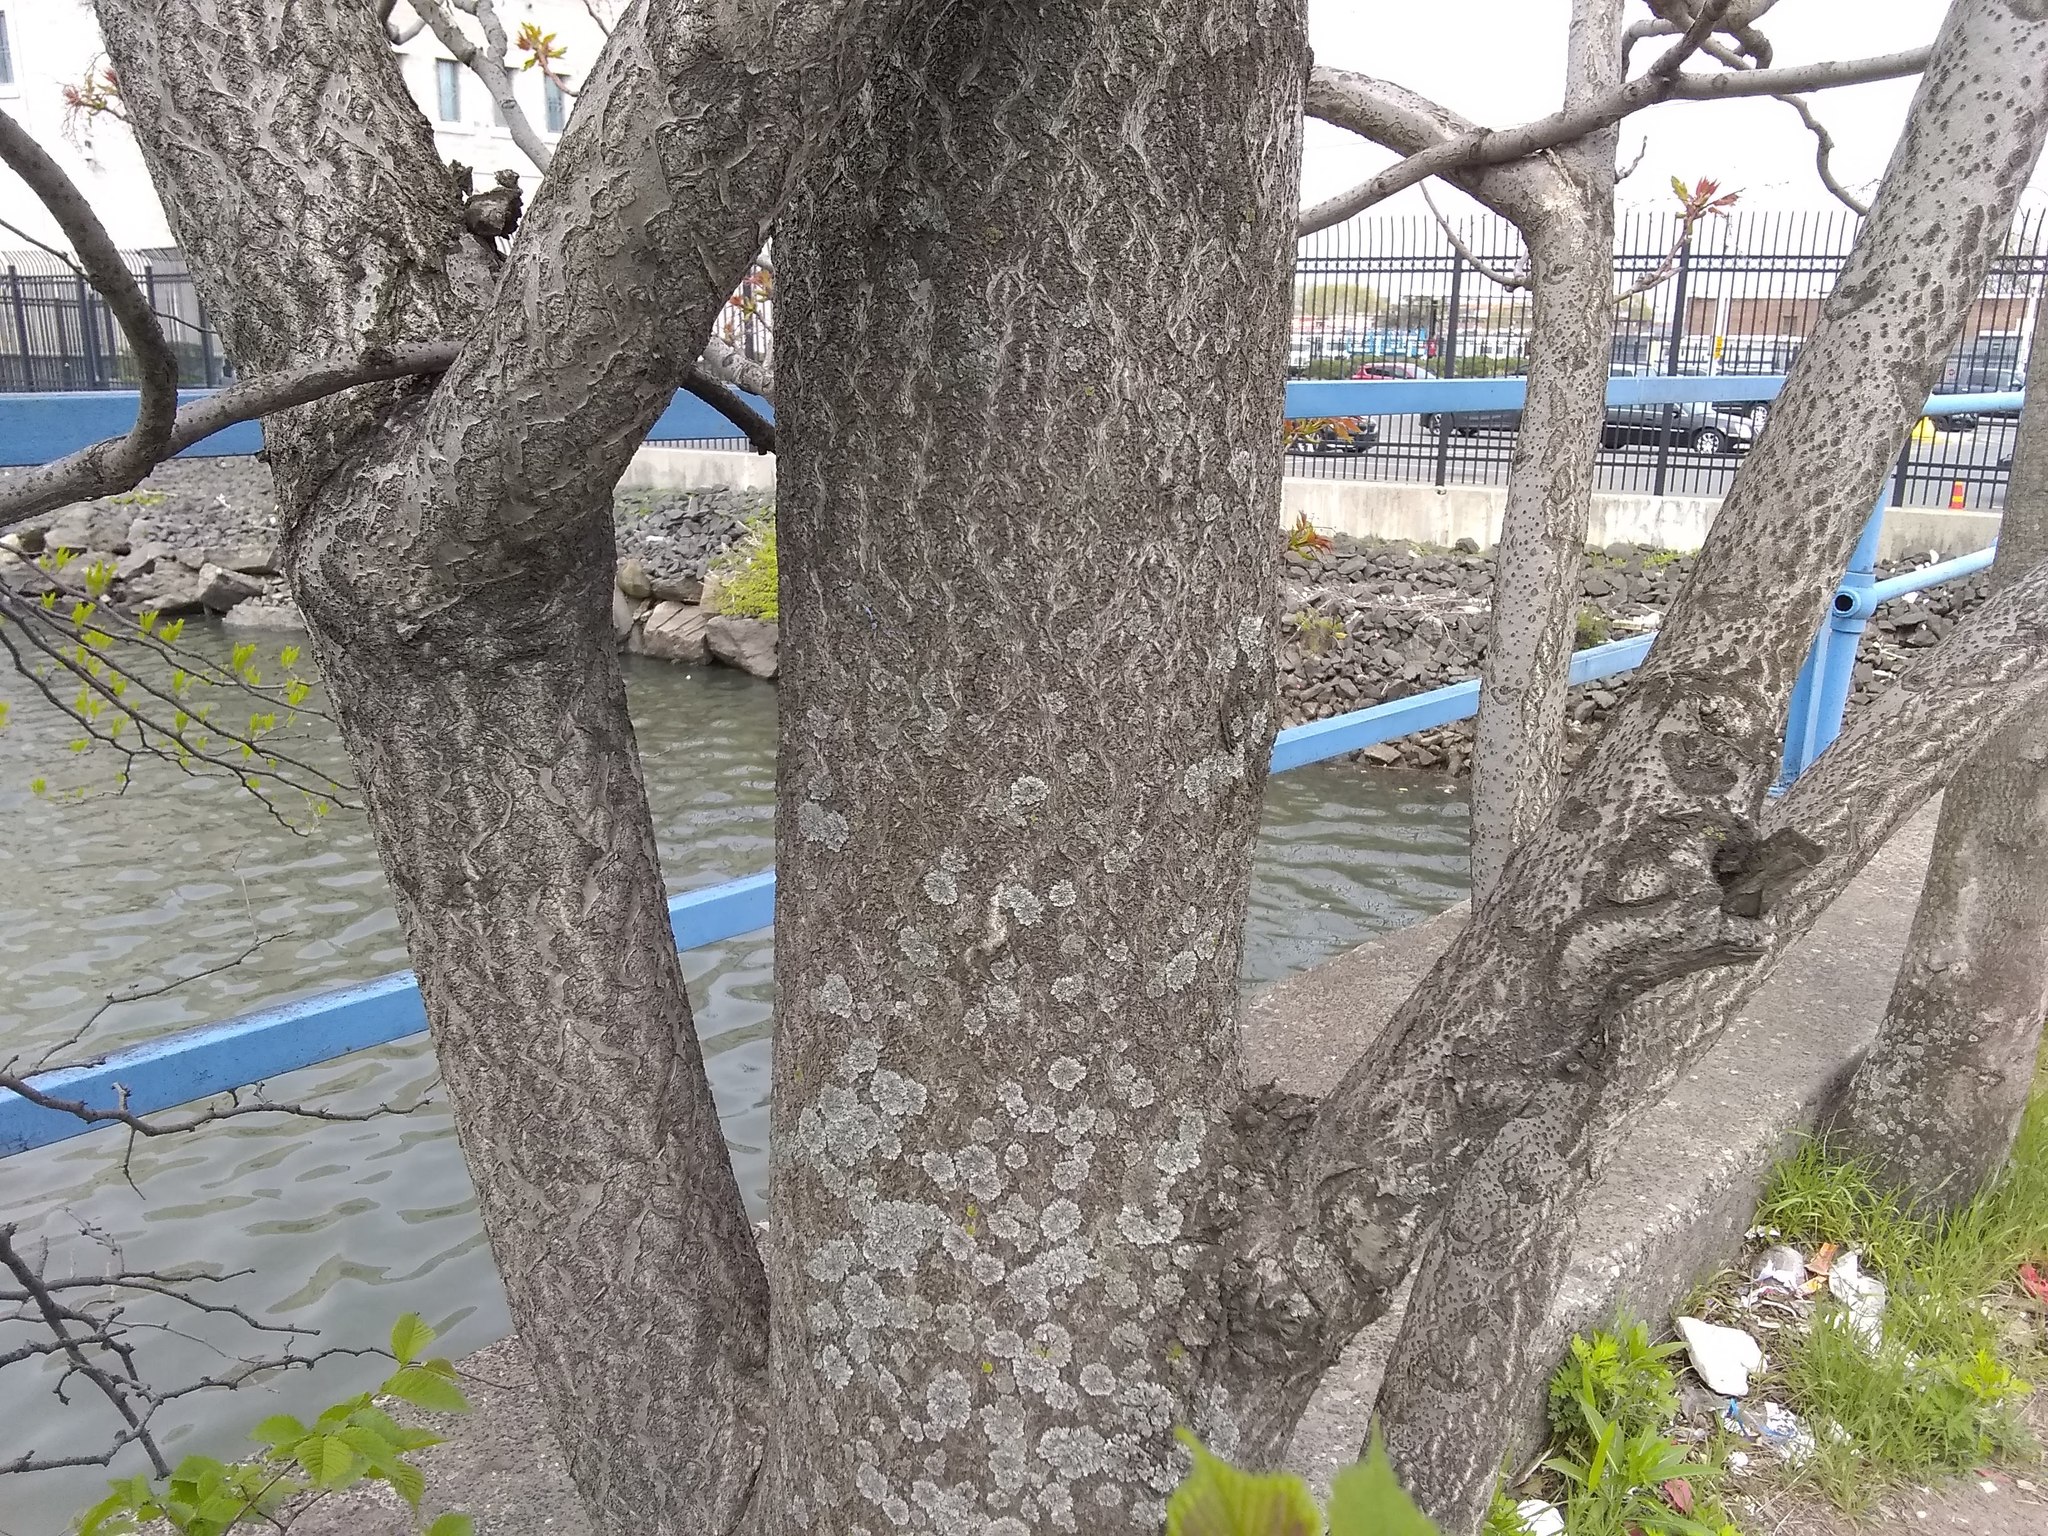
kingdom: Plantae
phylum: Tracheophyta
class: Magnoliopsida
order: Sapindales
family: Simaroubaceae
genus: Ailanthus
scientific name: Ailanthus altissima
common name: Tree-of-heaven
